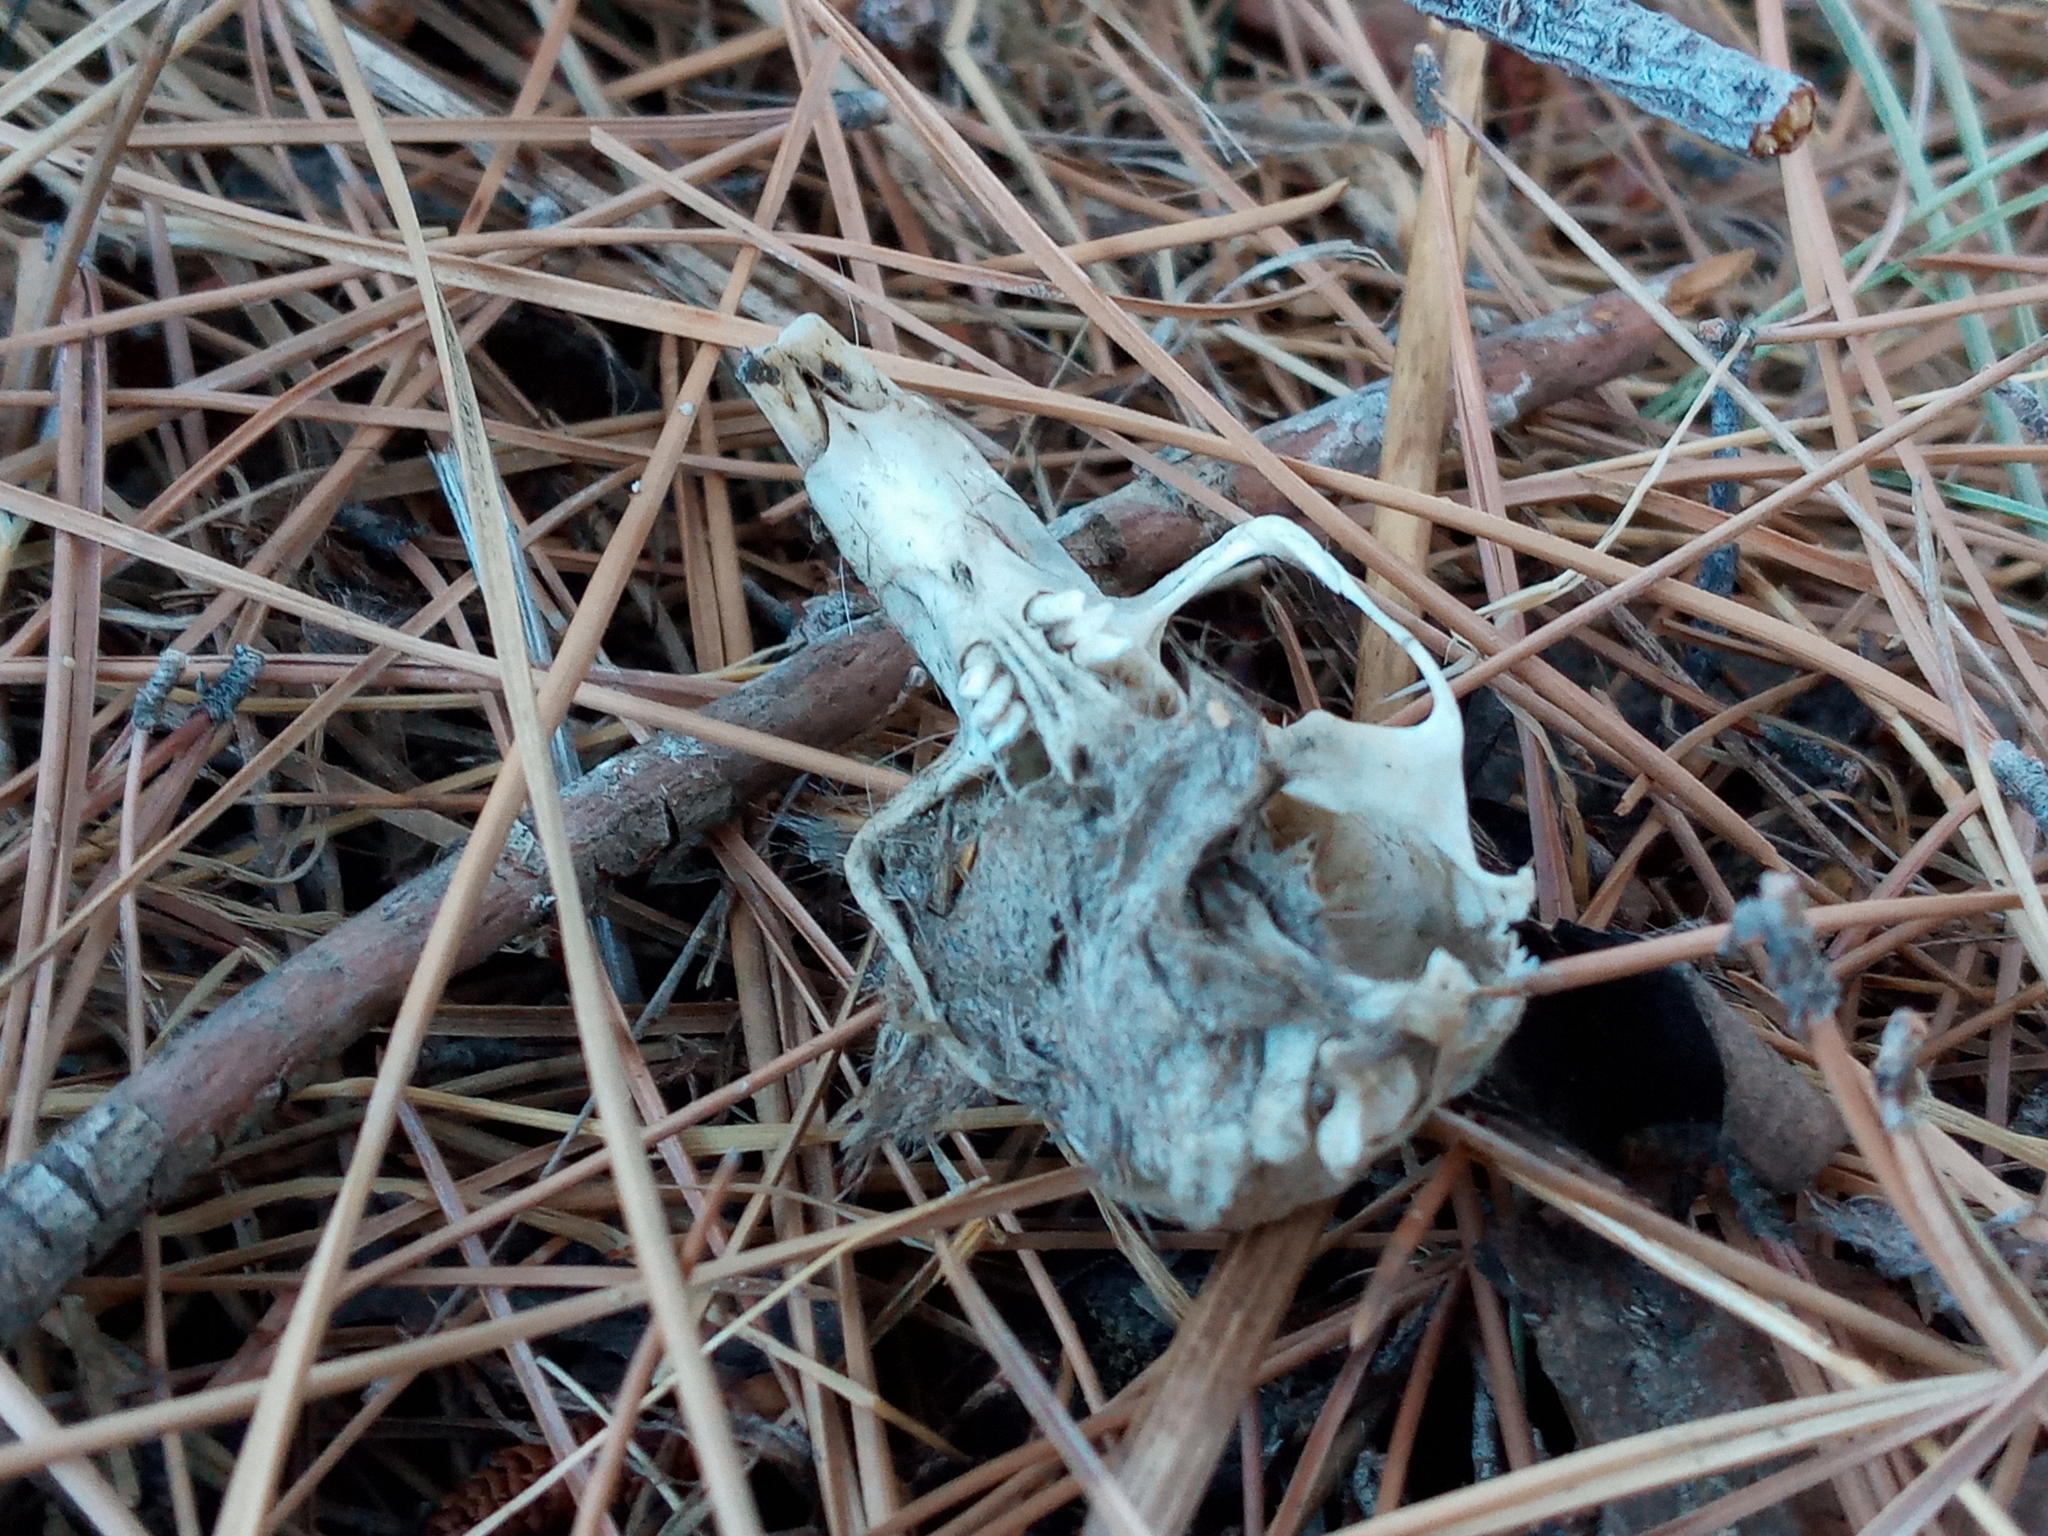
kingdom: Animalia
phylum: Chordata
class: Mammalia
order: Rodentia
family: Geomyidae
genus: Thomomys
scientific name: Thomomys bottae
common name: Botta's pocket gopher
